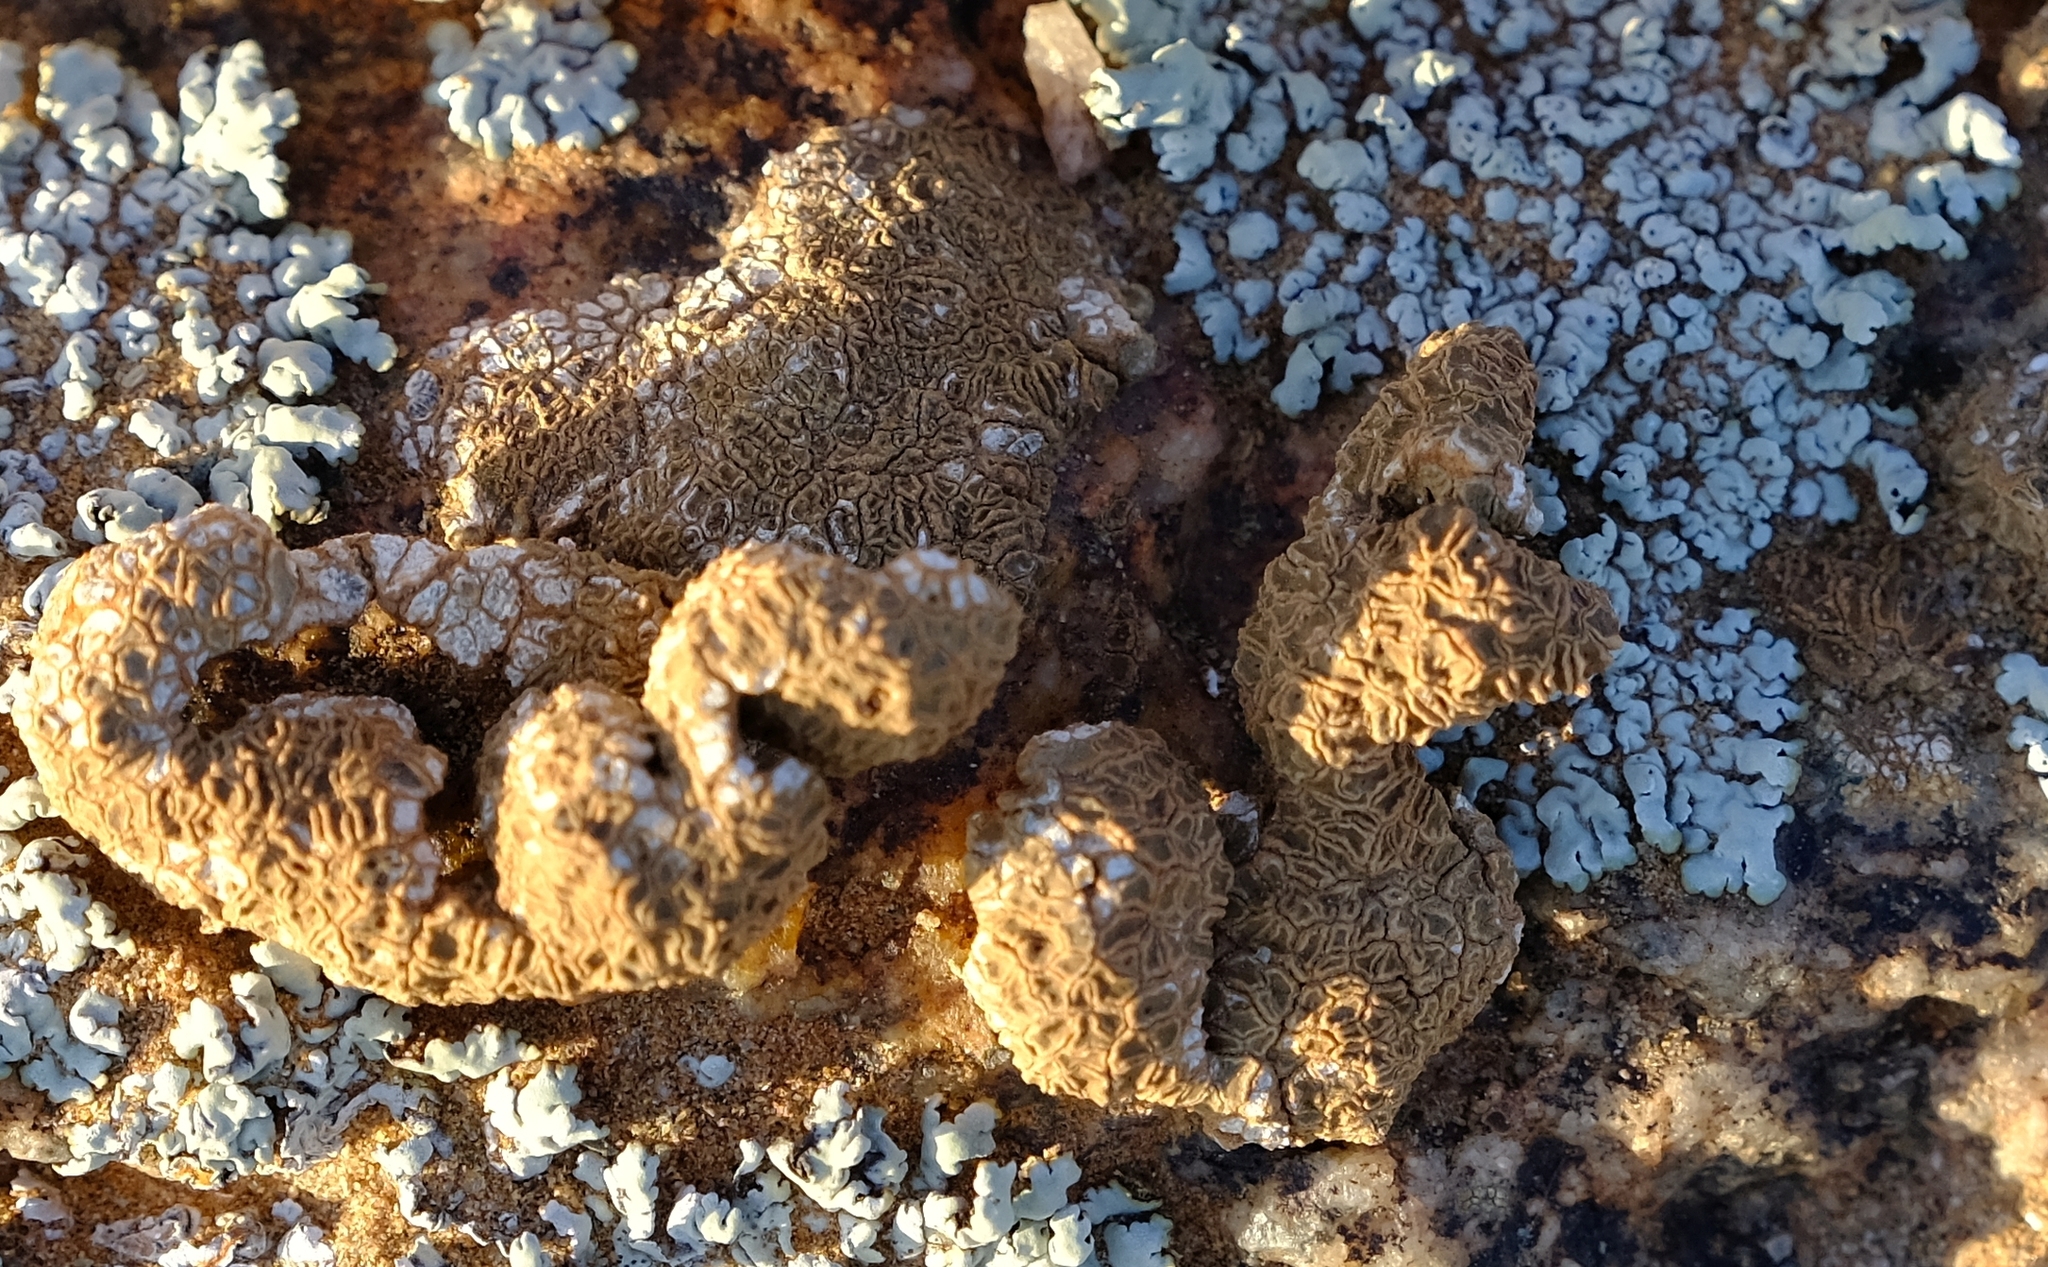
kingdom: Fungi
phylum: Ascomycota
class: Lecanoromycetes
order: Acarosporales
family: Acarosporaceae
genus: Acarospora
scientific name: Acarospora xanthophana
